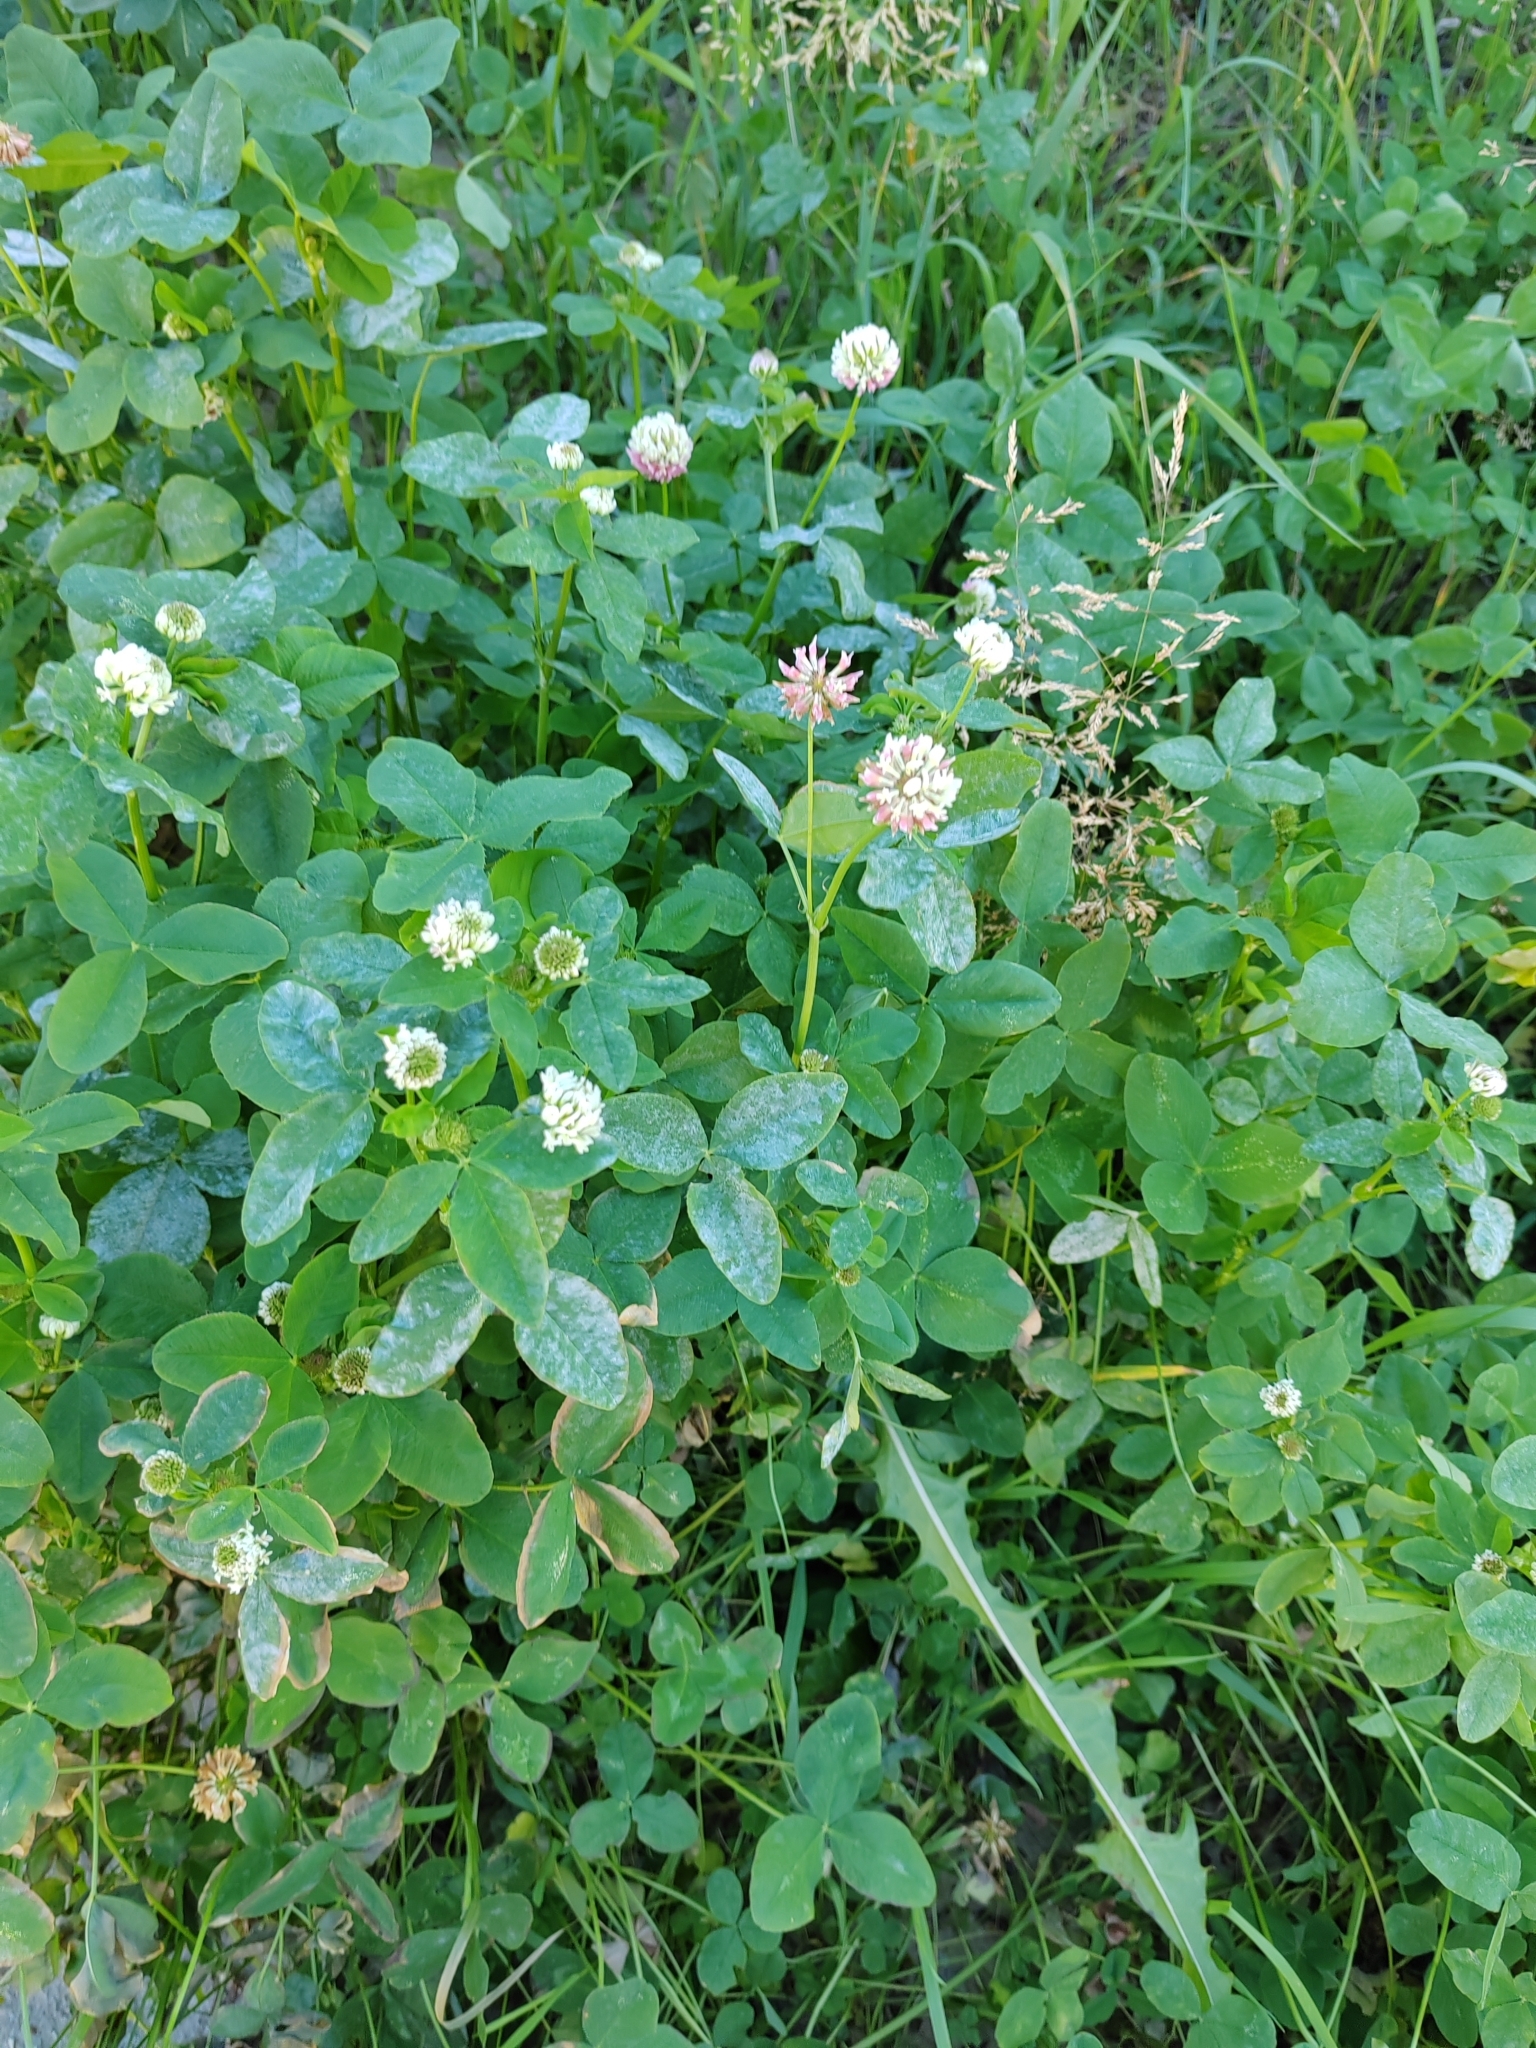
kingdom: Plantae
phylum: Tracheophyta
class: Magnoliopsida
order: Fabales
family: Fabaceae
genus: Trifolium
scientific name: Trifolium hybridum
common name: Alsike clover
